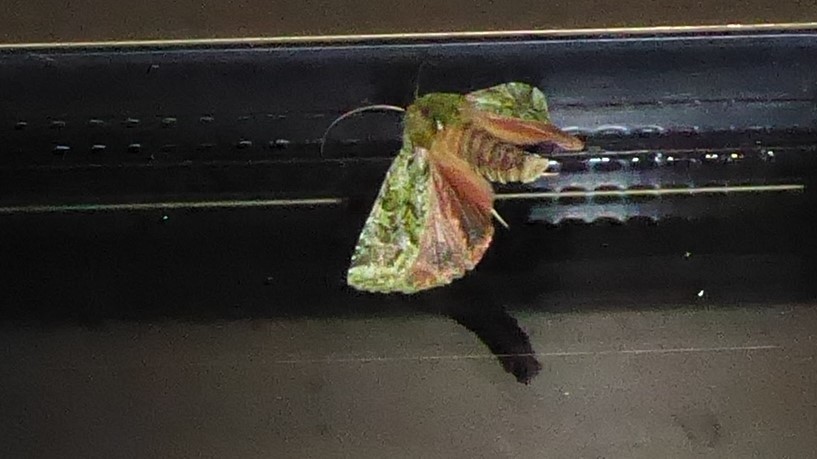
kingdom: Animalia
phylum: Arthropoda
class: Insecta
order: Lepidoptera
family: Noctuidae
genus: Feredayia
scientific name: Feredayia grammosa
